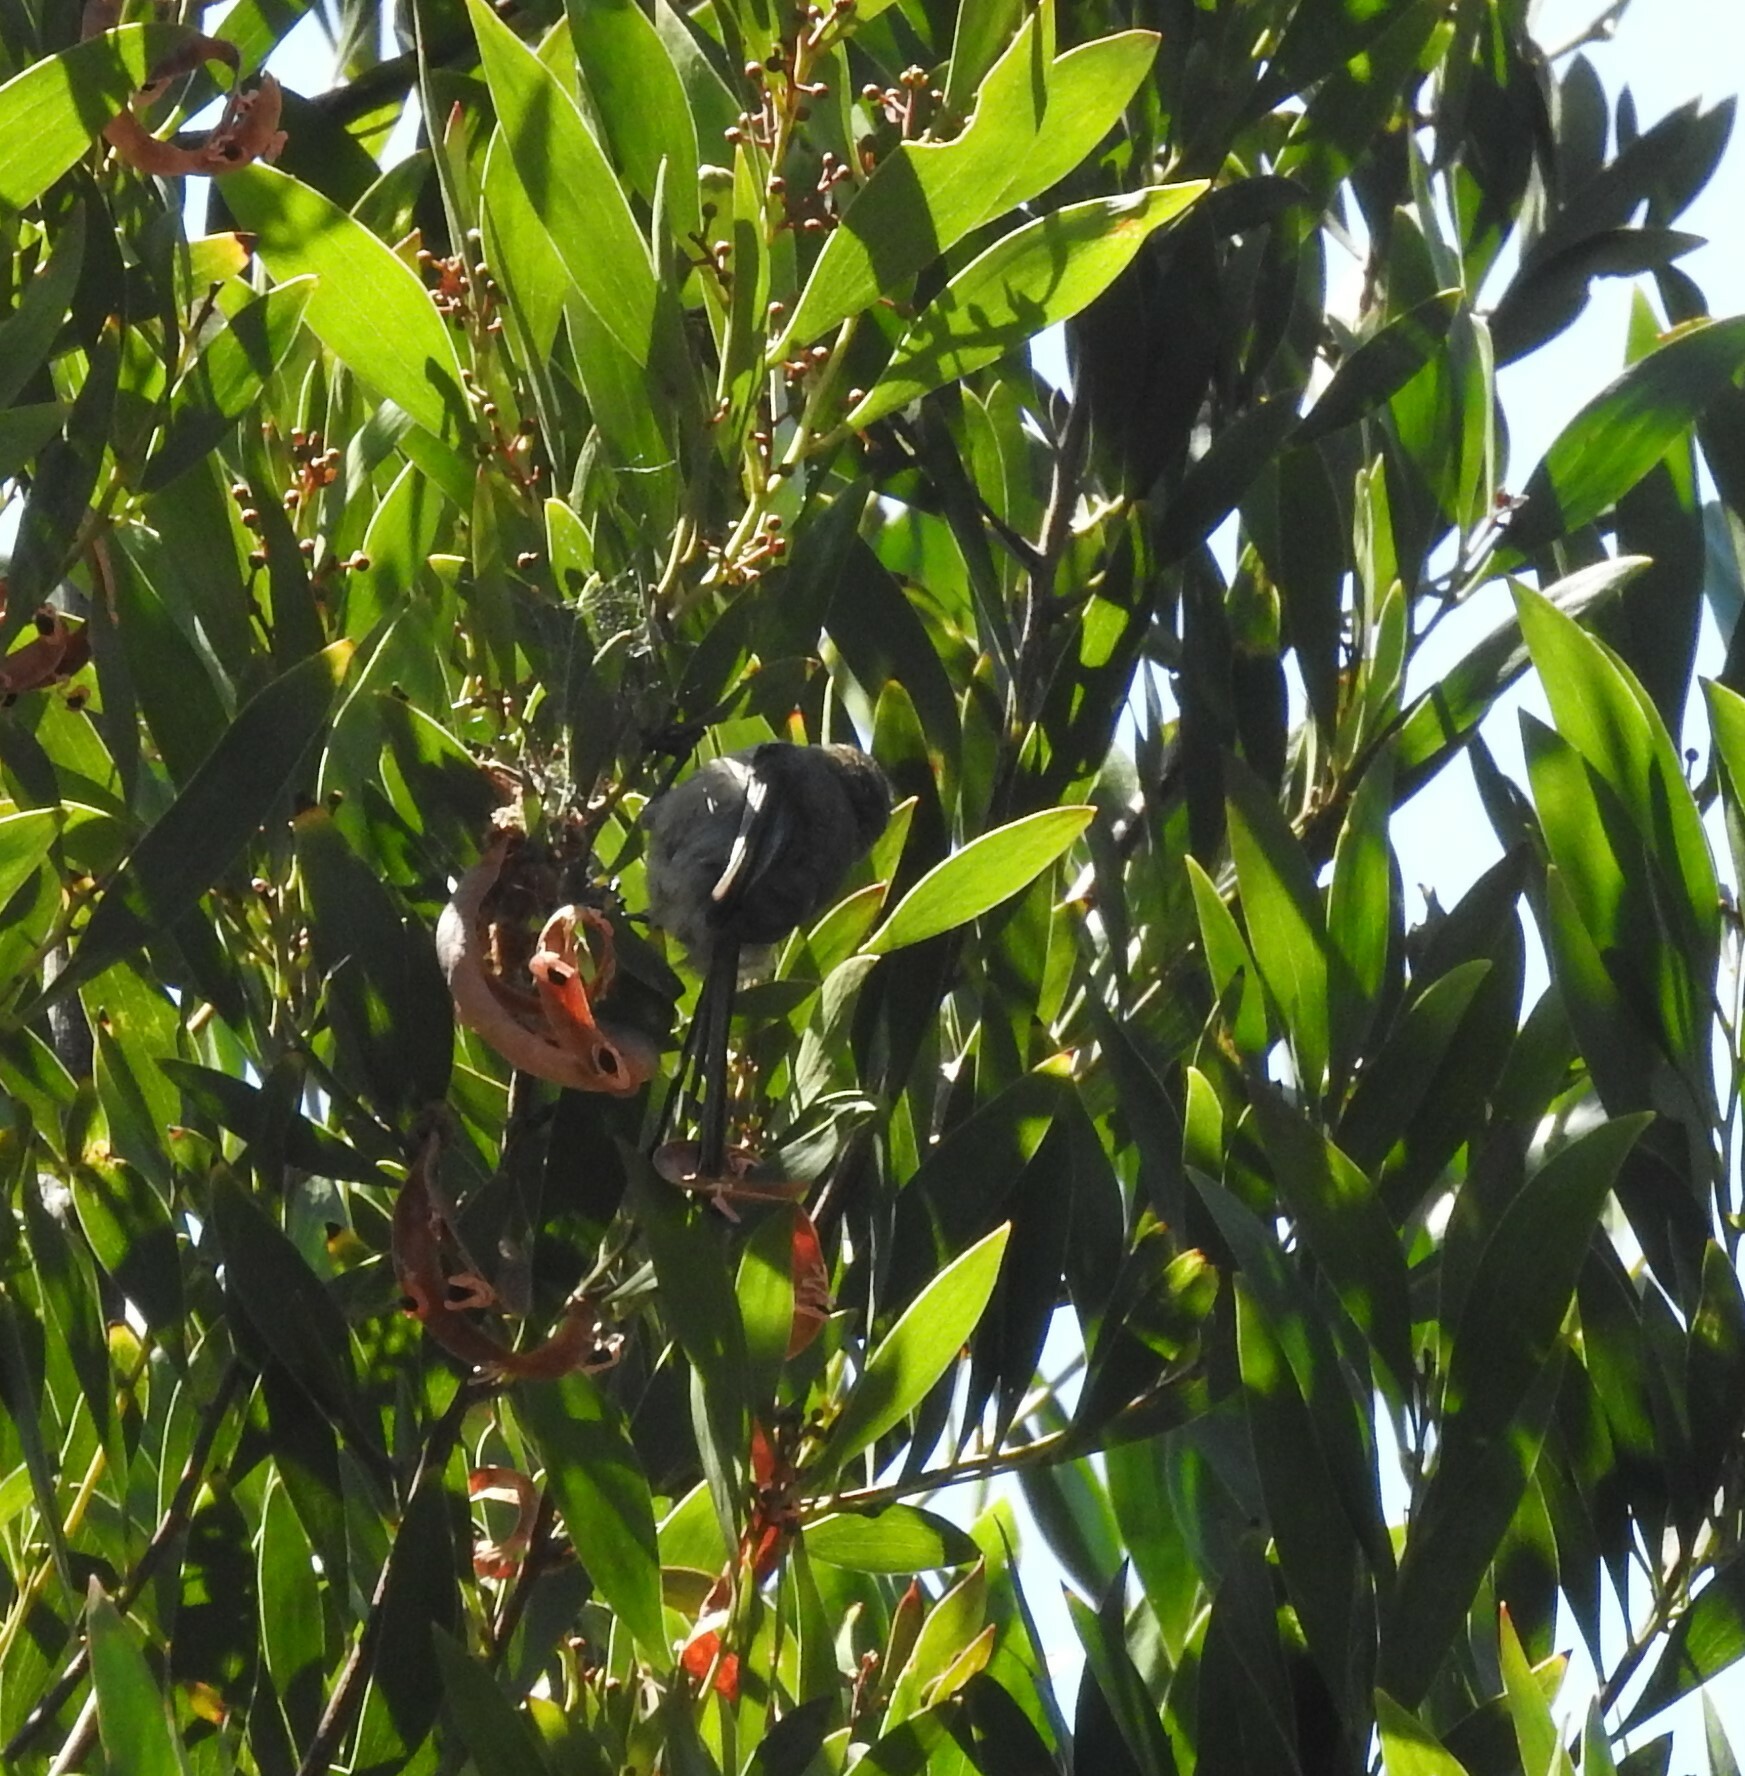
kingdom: Animalia
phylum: Chordata
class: Aves
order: Passeriformes
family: Aegithalidae
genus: Psaltriparus
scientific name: Psaltriparus minimus
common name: American bushtit
